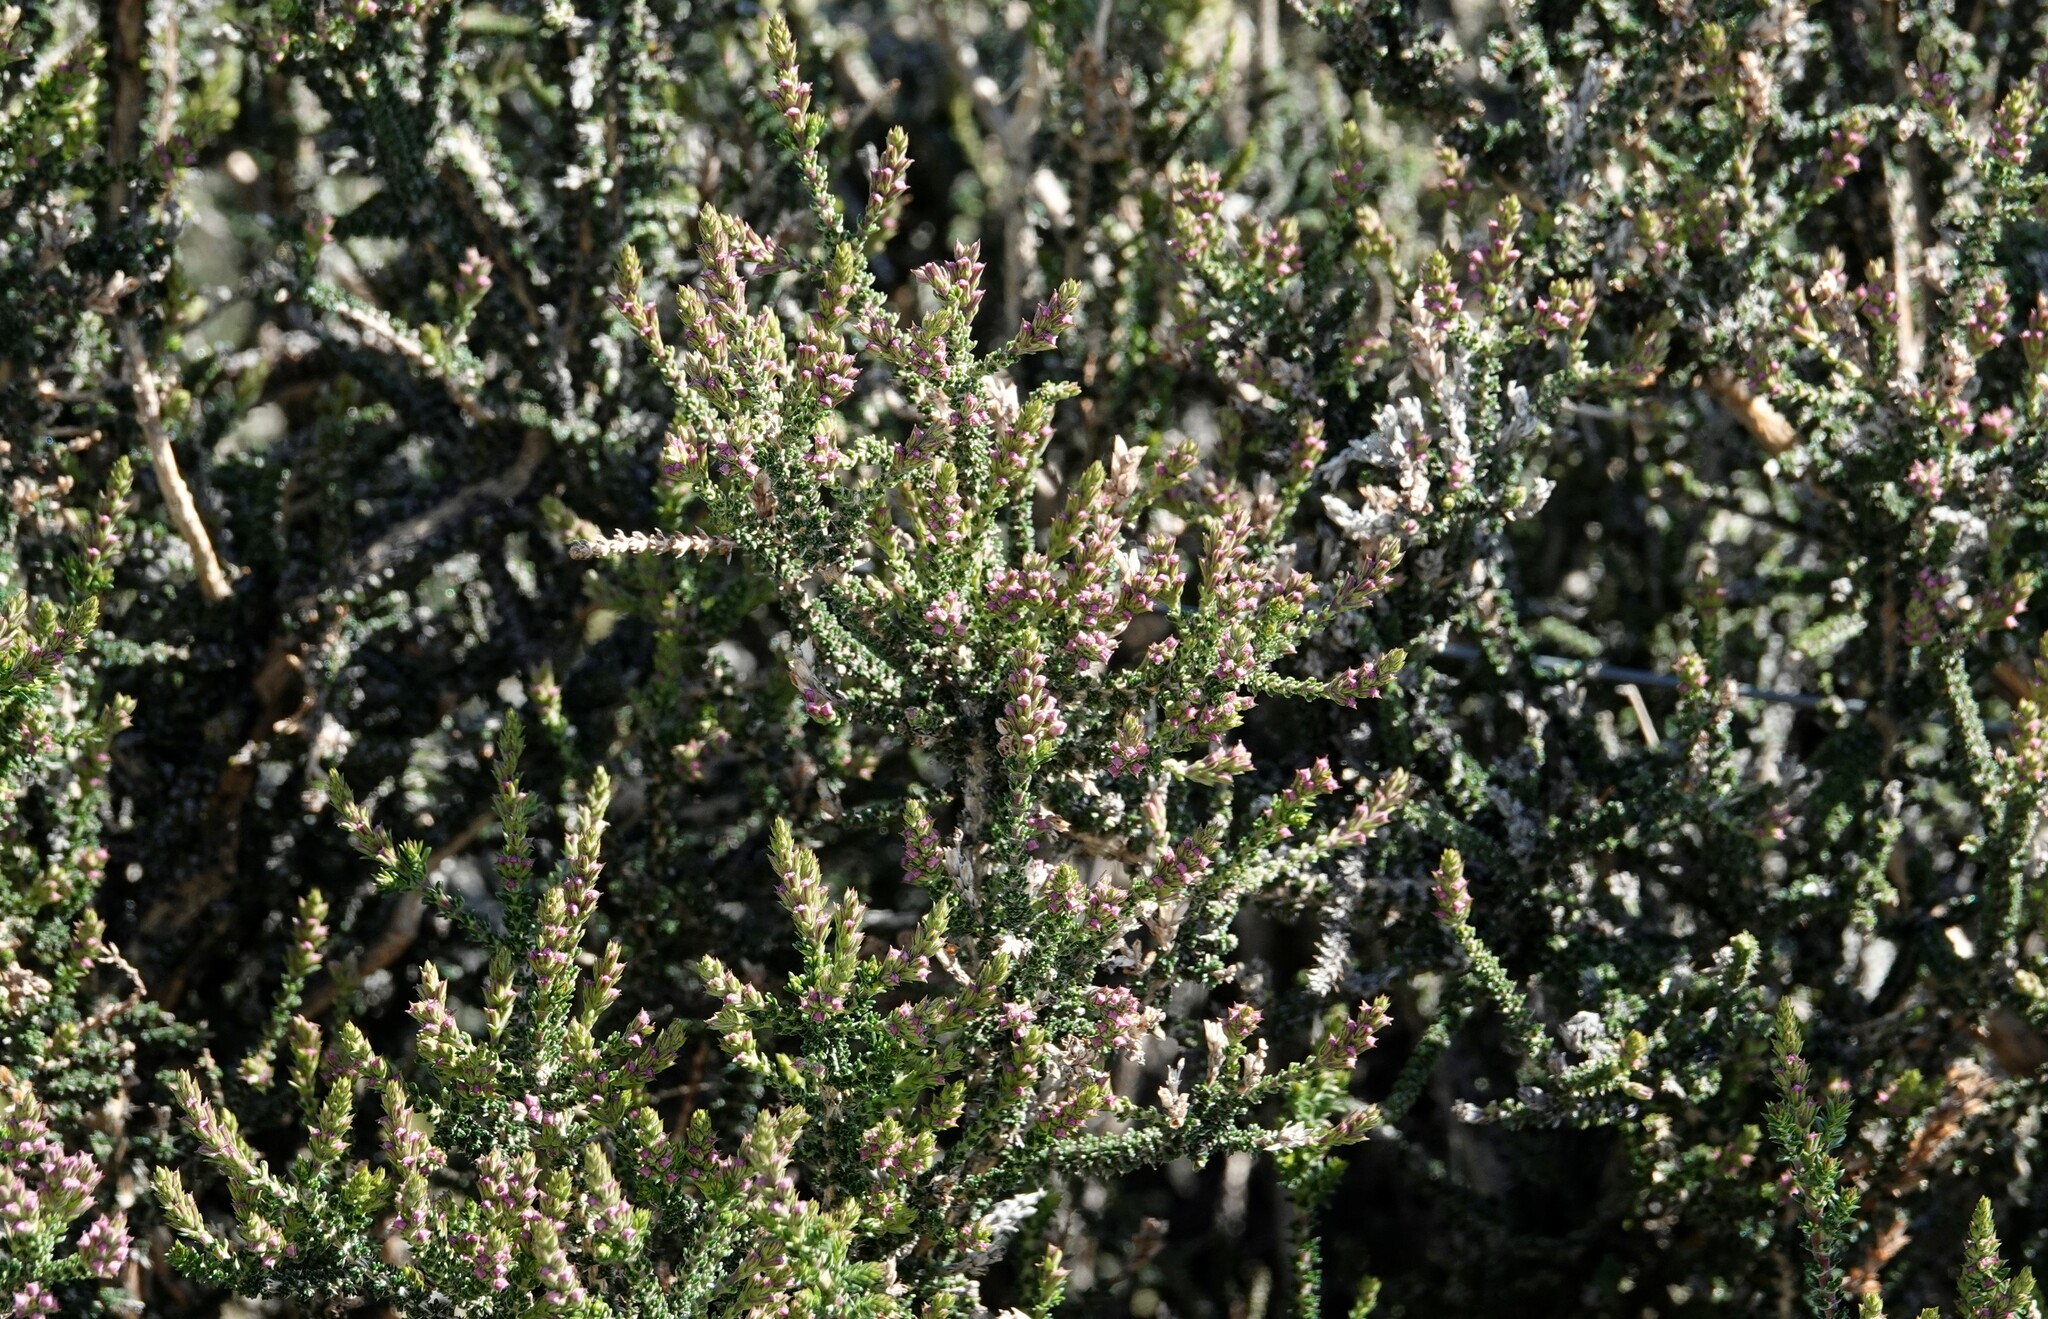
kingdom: Plantae
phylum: Tracheophyta
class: Magnoliopsida
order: Lamiales
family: Verbenaceae
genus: Mulguraea
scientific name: Mulguraea tridens
